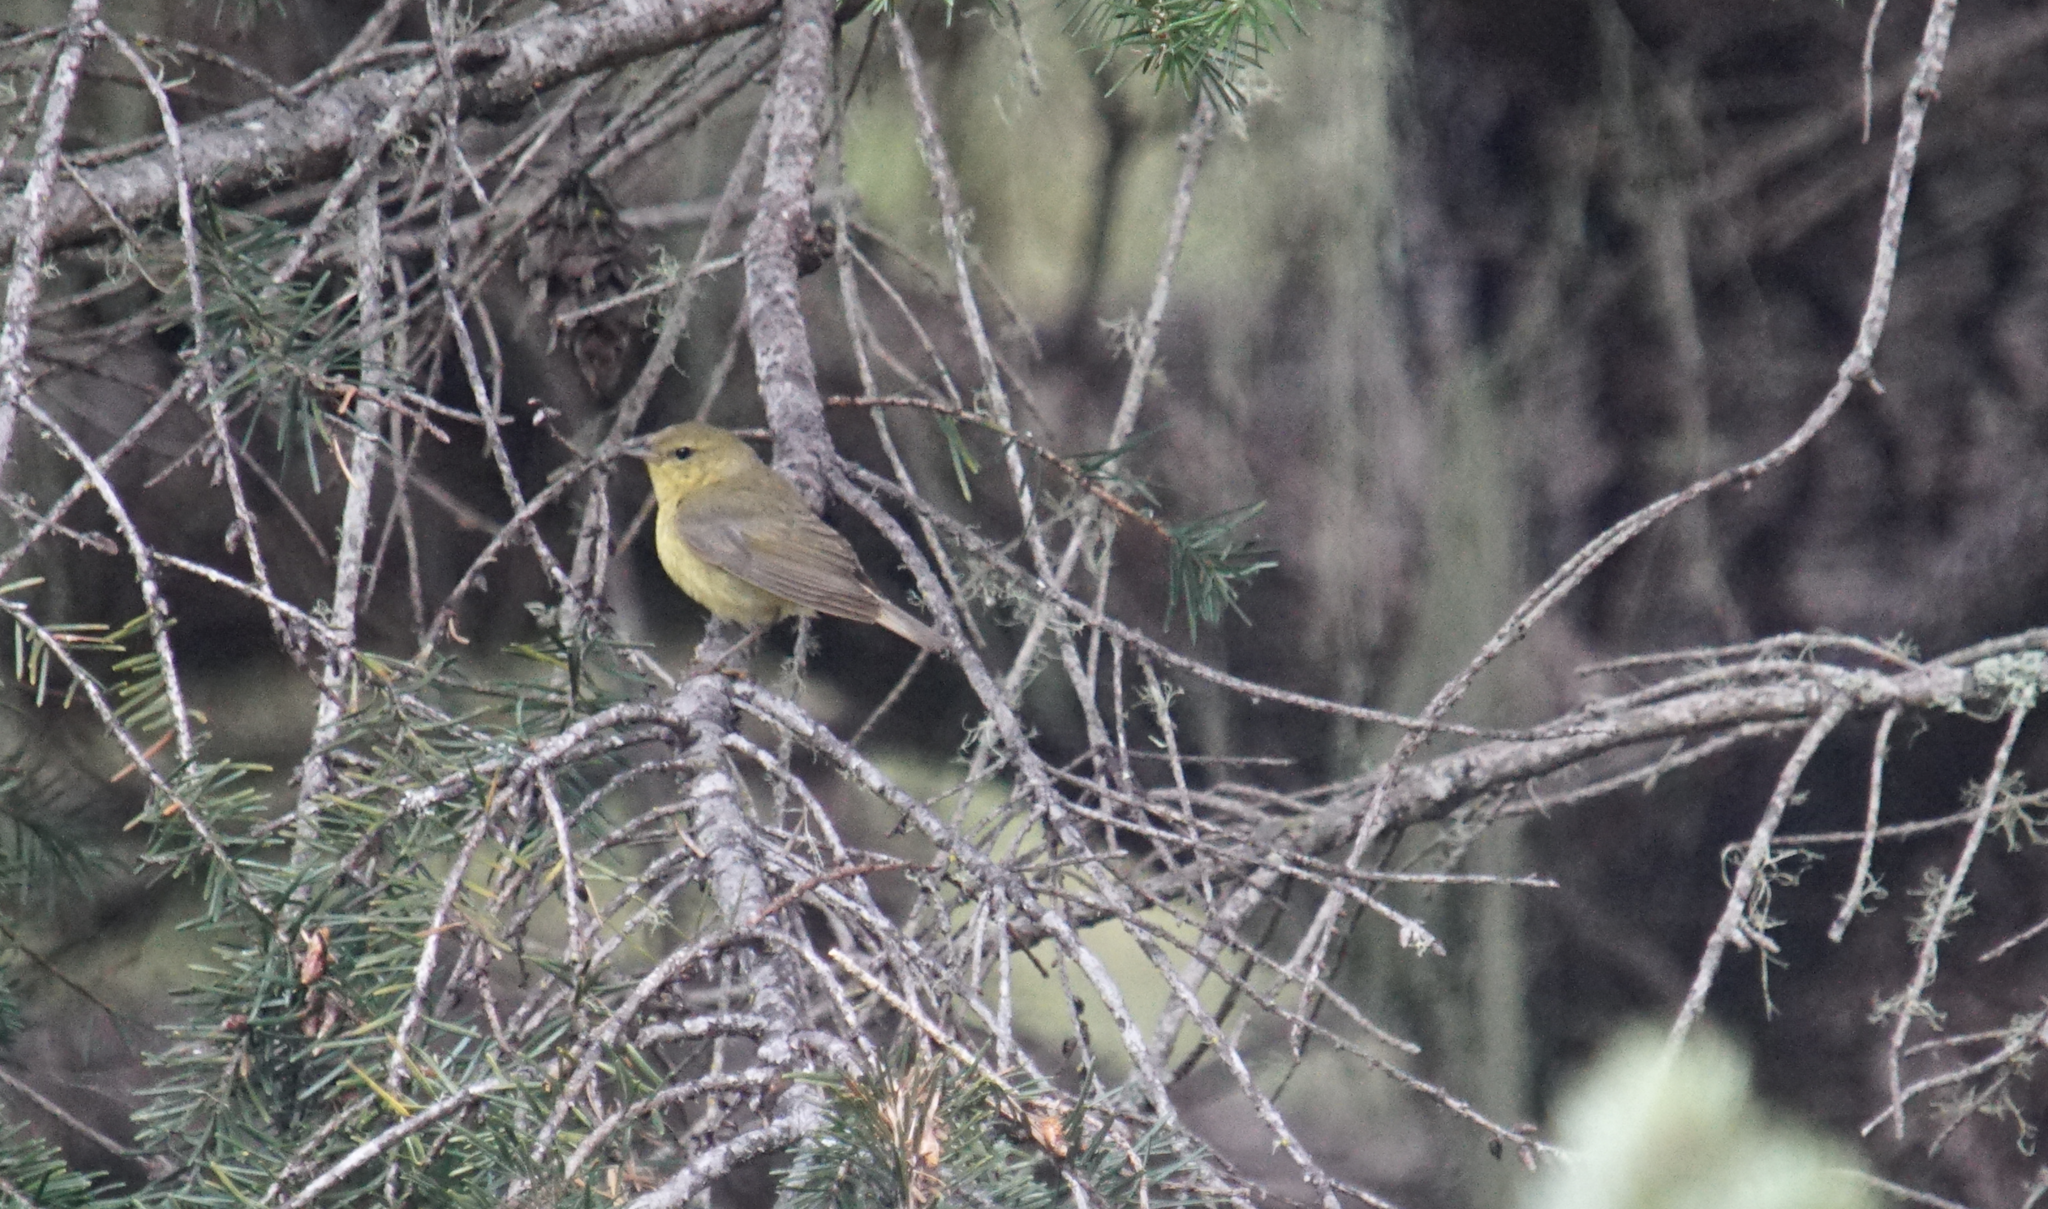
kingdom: Animalia
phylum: Chordata
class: Aves
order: Passeriformes
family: Parulidae
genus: Geothlypis
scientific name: Geothlypis trichas
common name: Common yellowthroat
